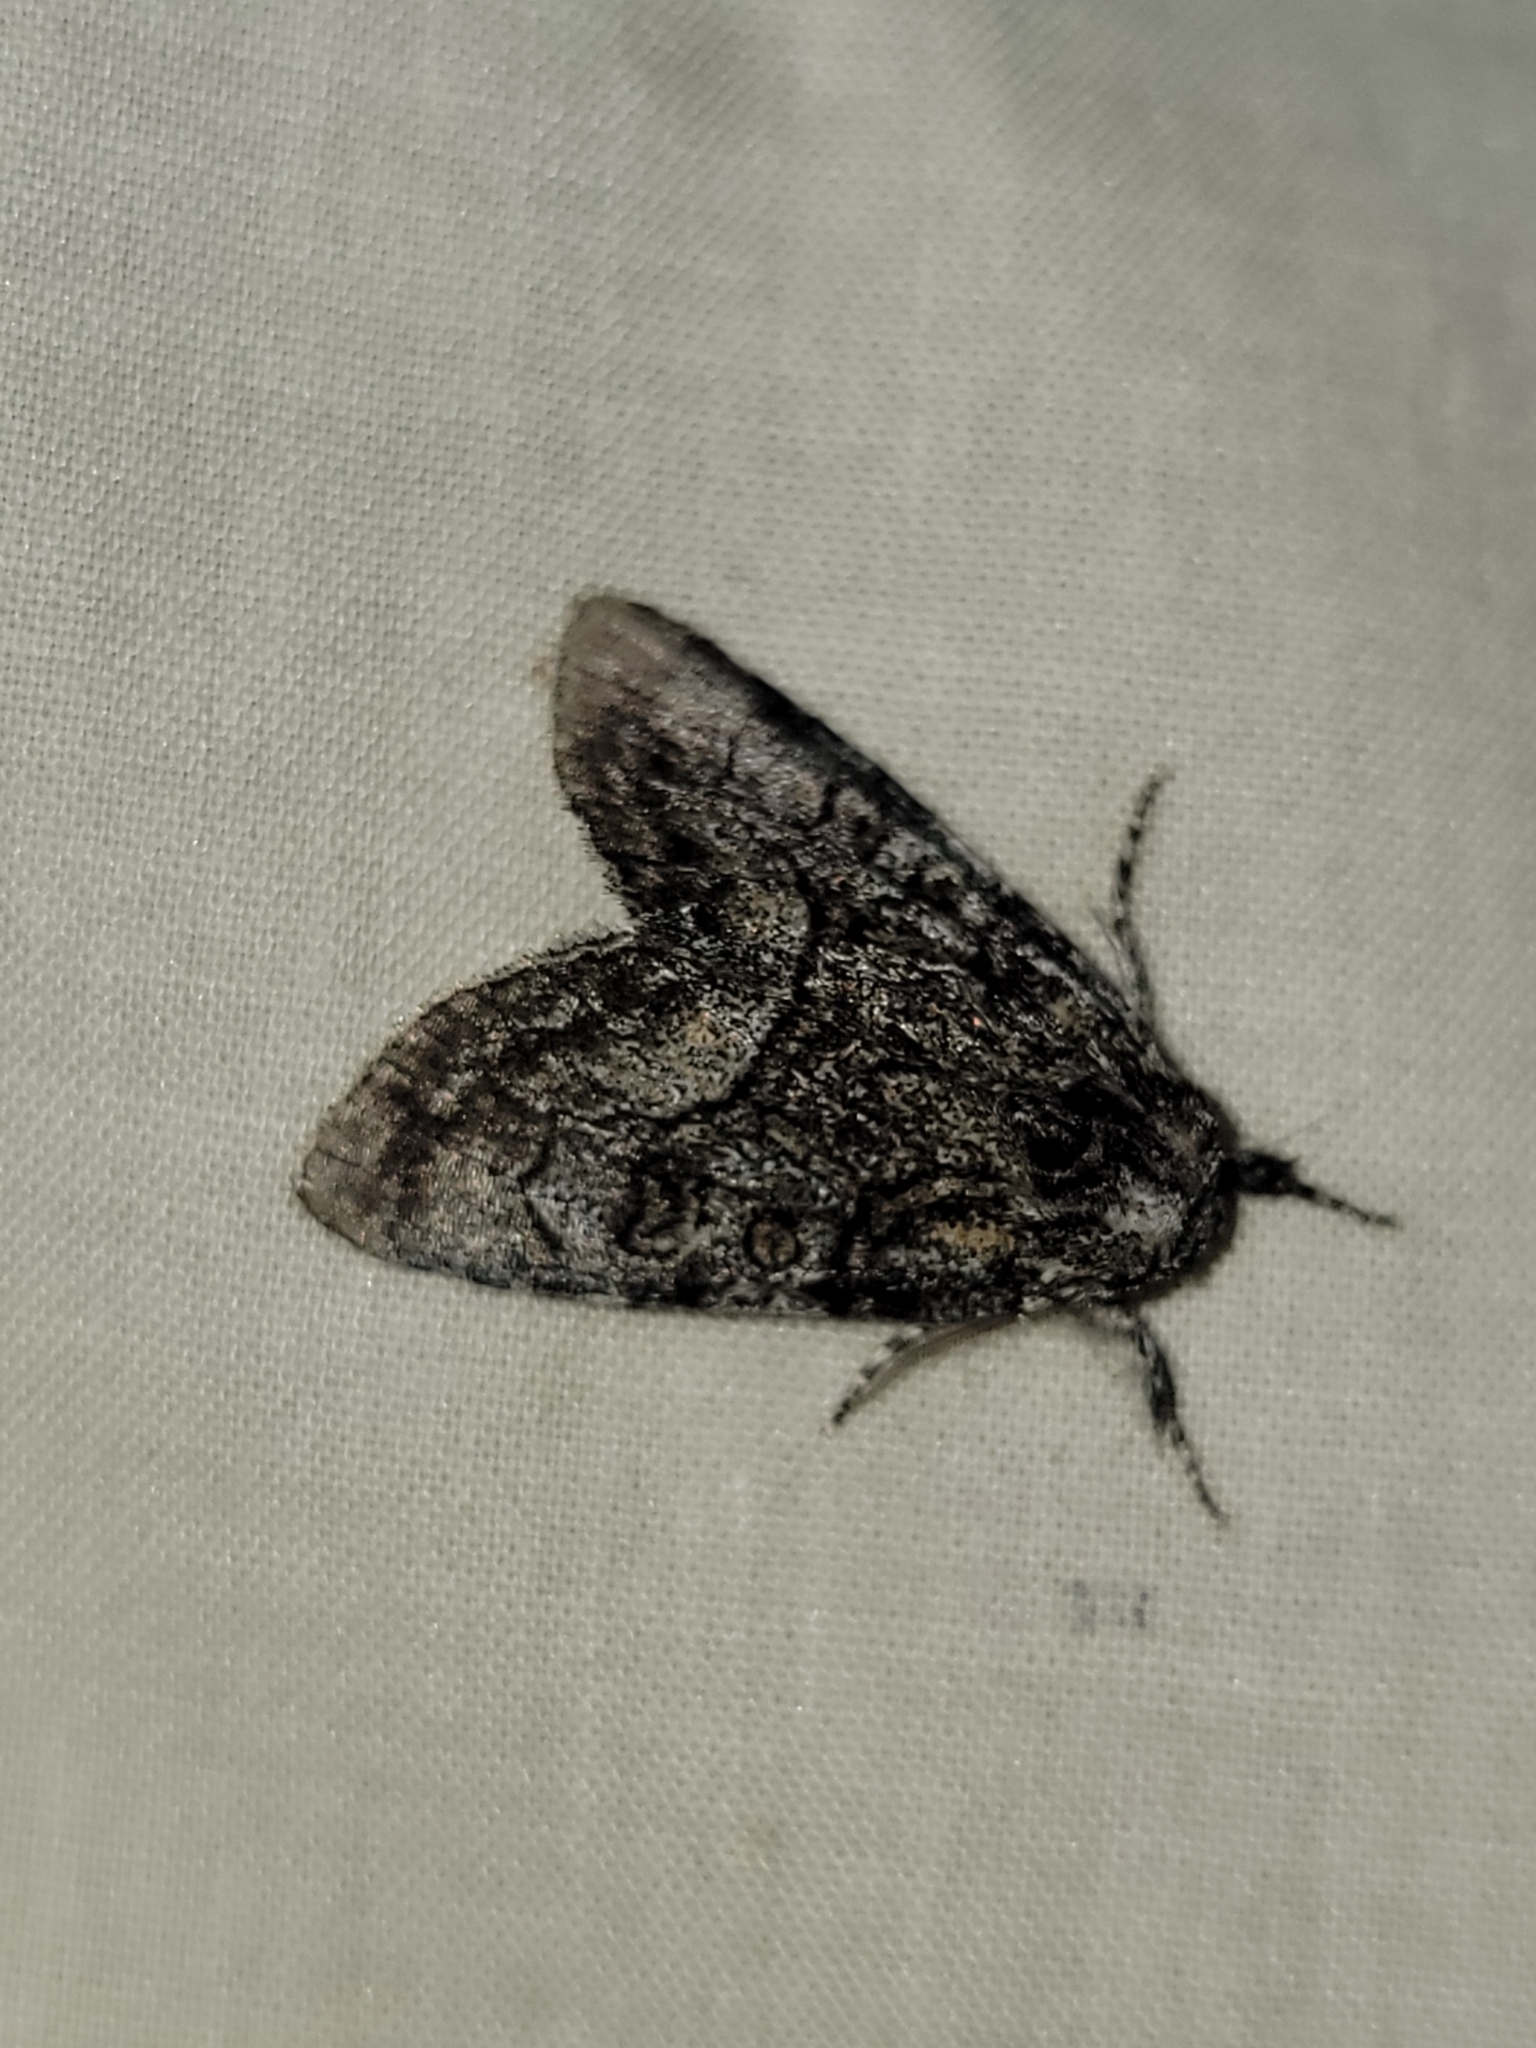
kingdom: Animalia
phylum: Arthropoda
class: Insecta
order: Lepidoptera
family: Noctuidae
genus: Raphia
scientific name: Raphia frater
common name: Brother
